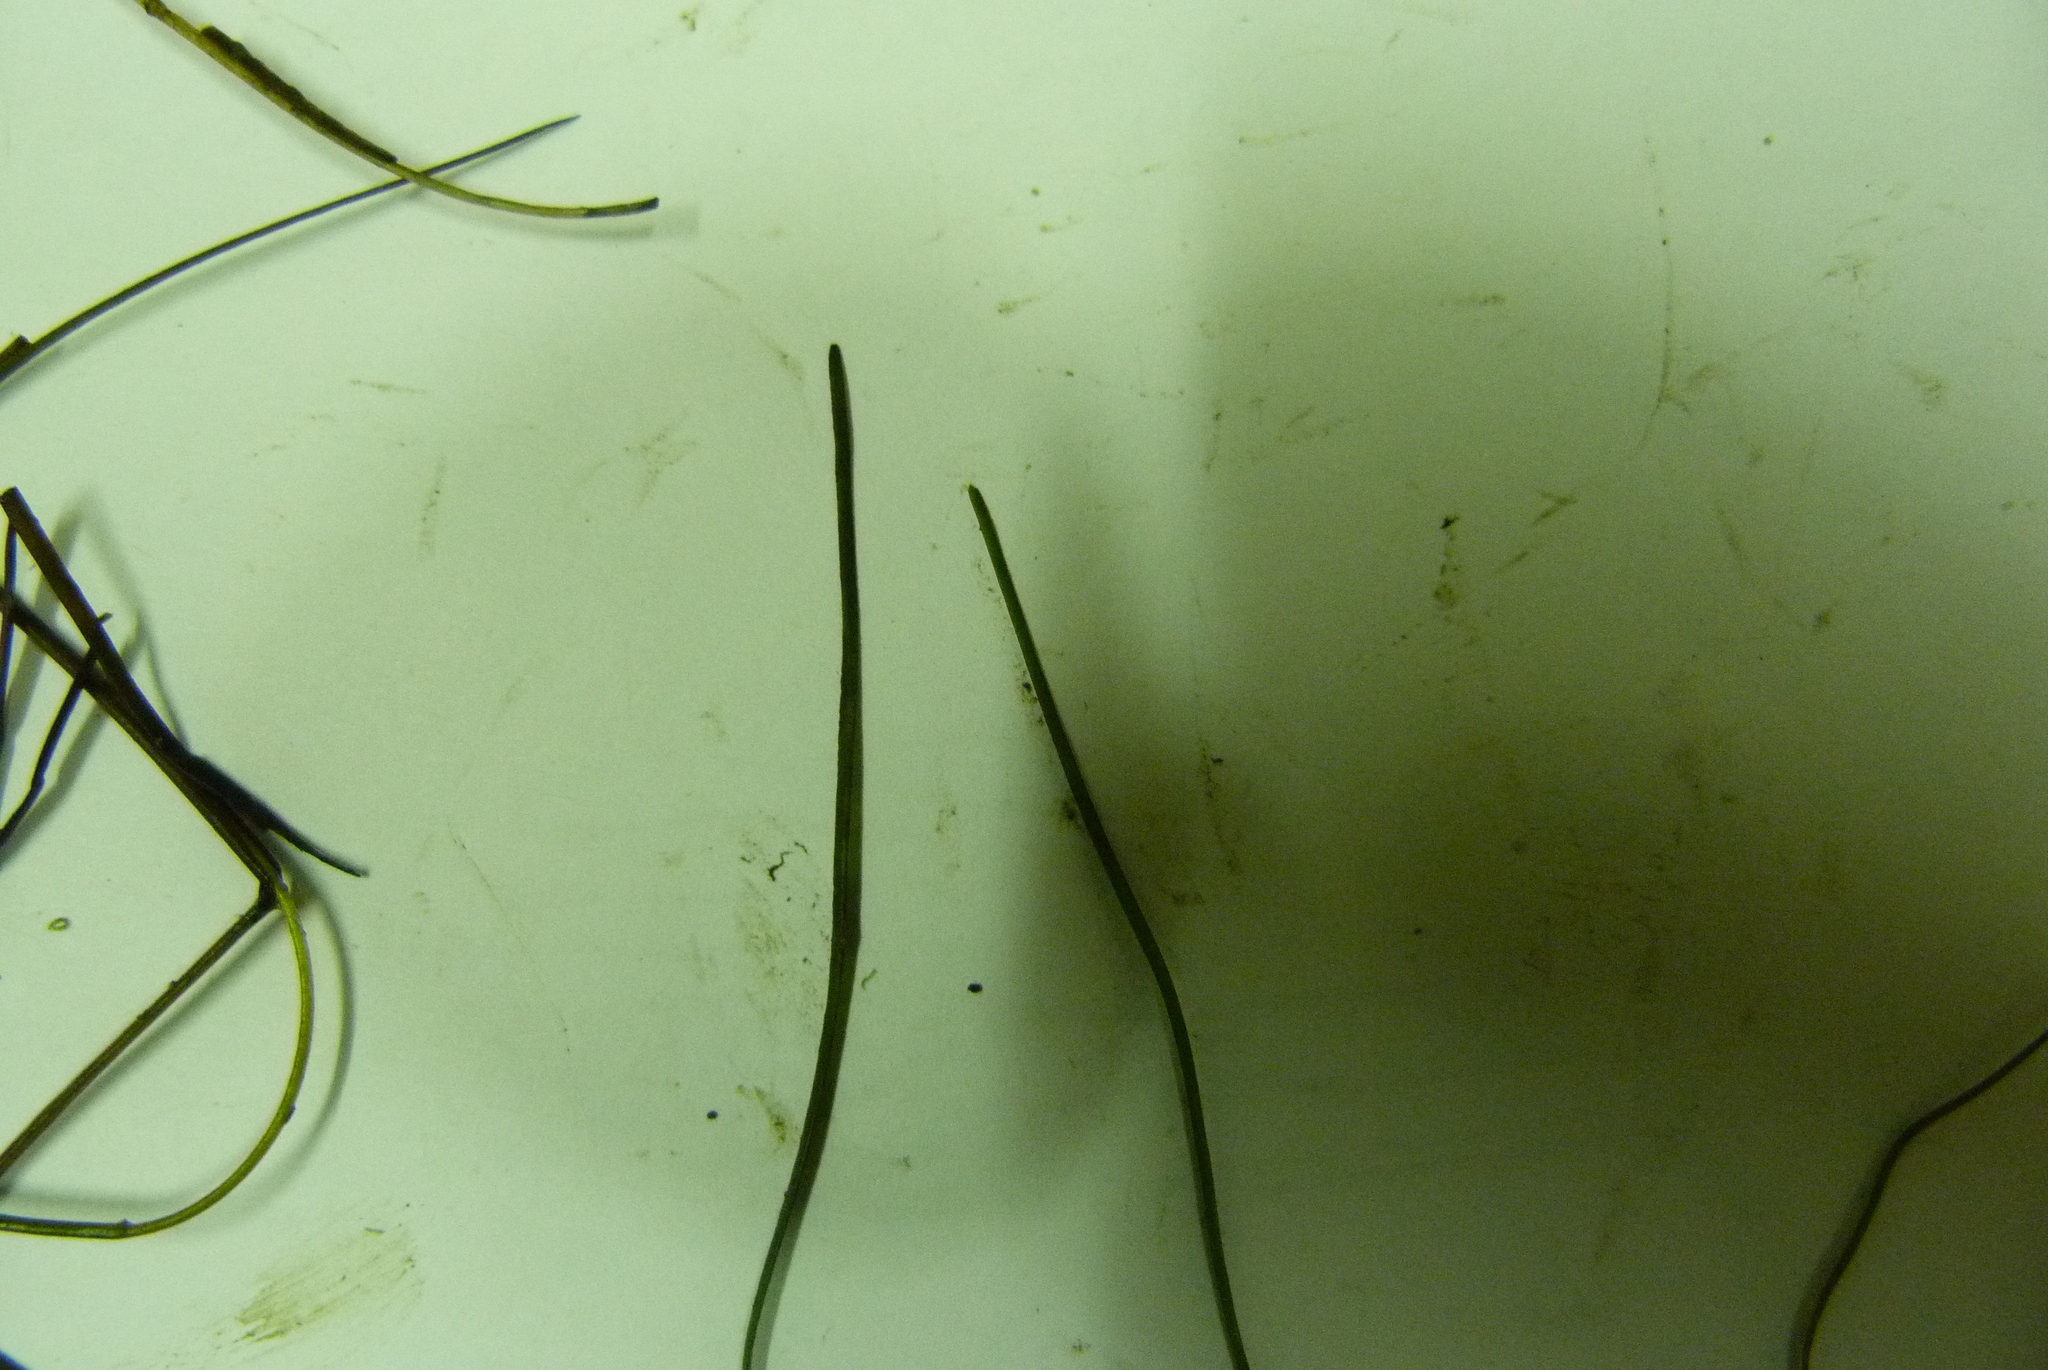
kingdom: Plantae
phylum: Tracheophyta
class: Liliopsida
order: Alismatales
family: Potamogetonaceae
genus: Stuckenia
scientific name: Stuckenia pectinata
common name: Sago pondweed
